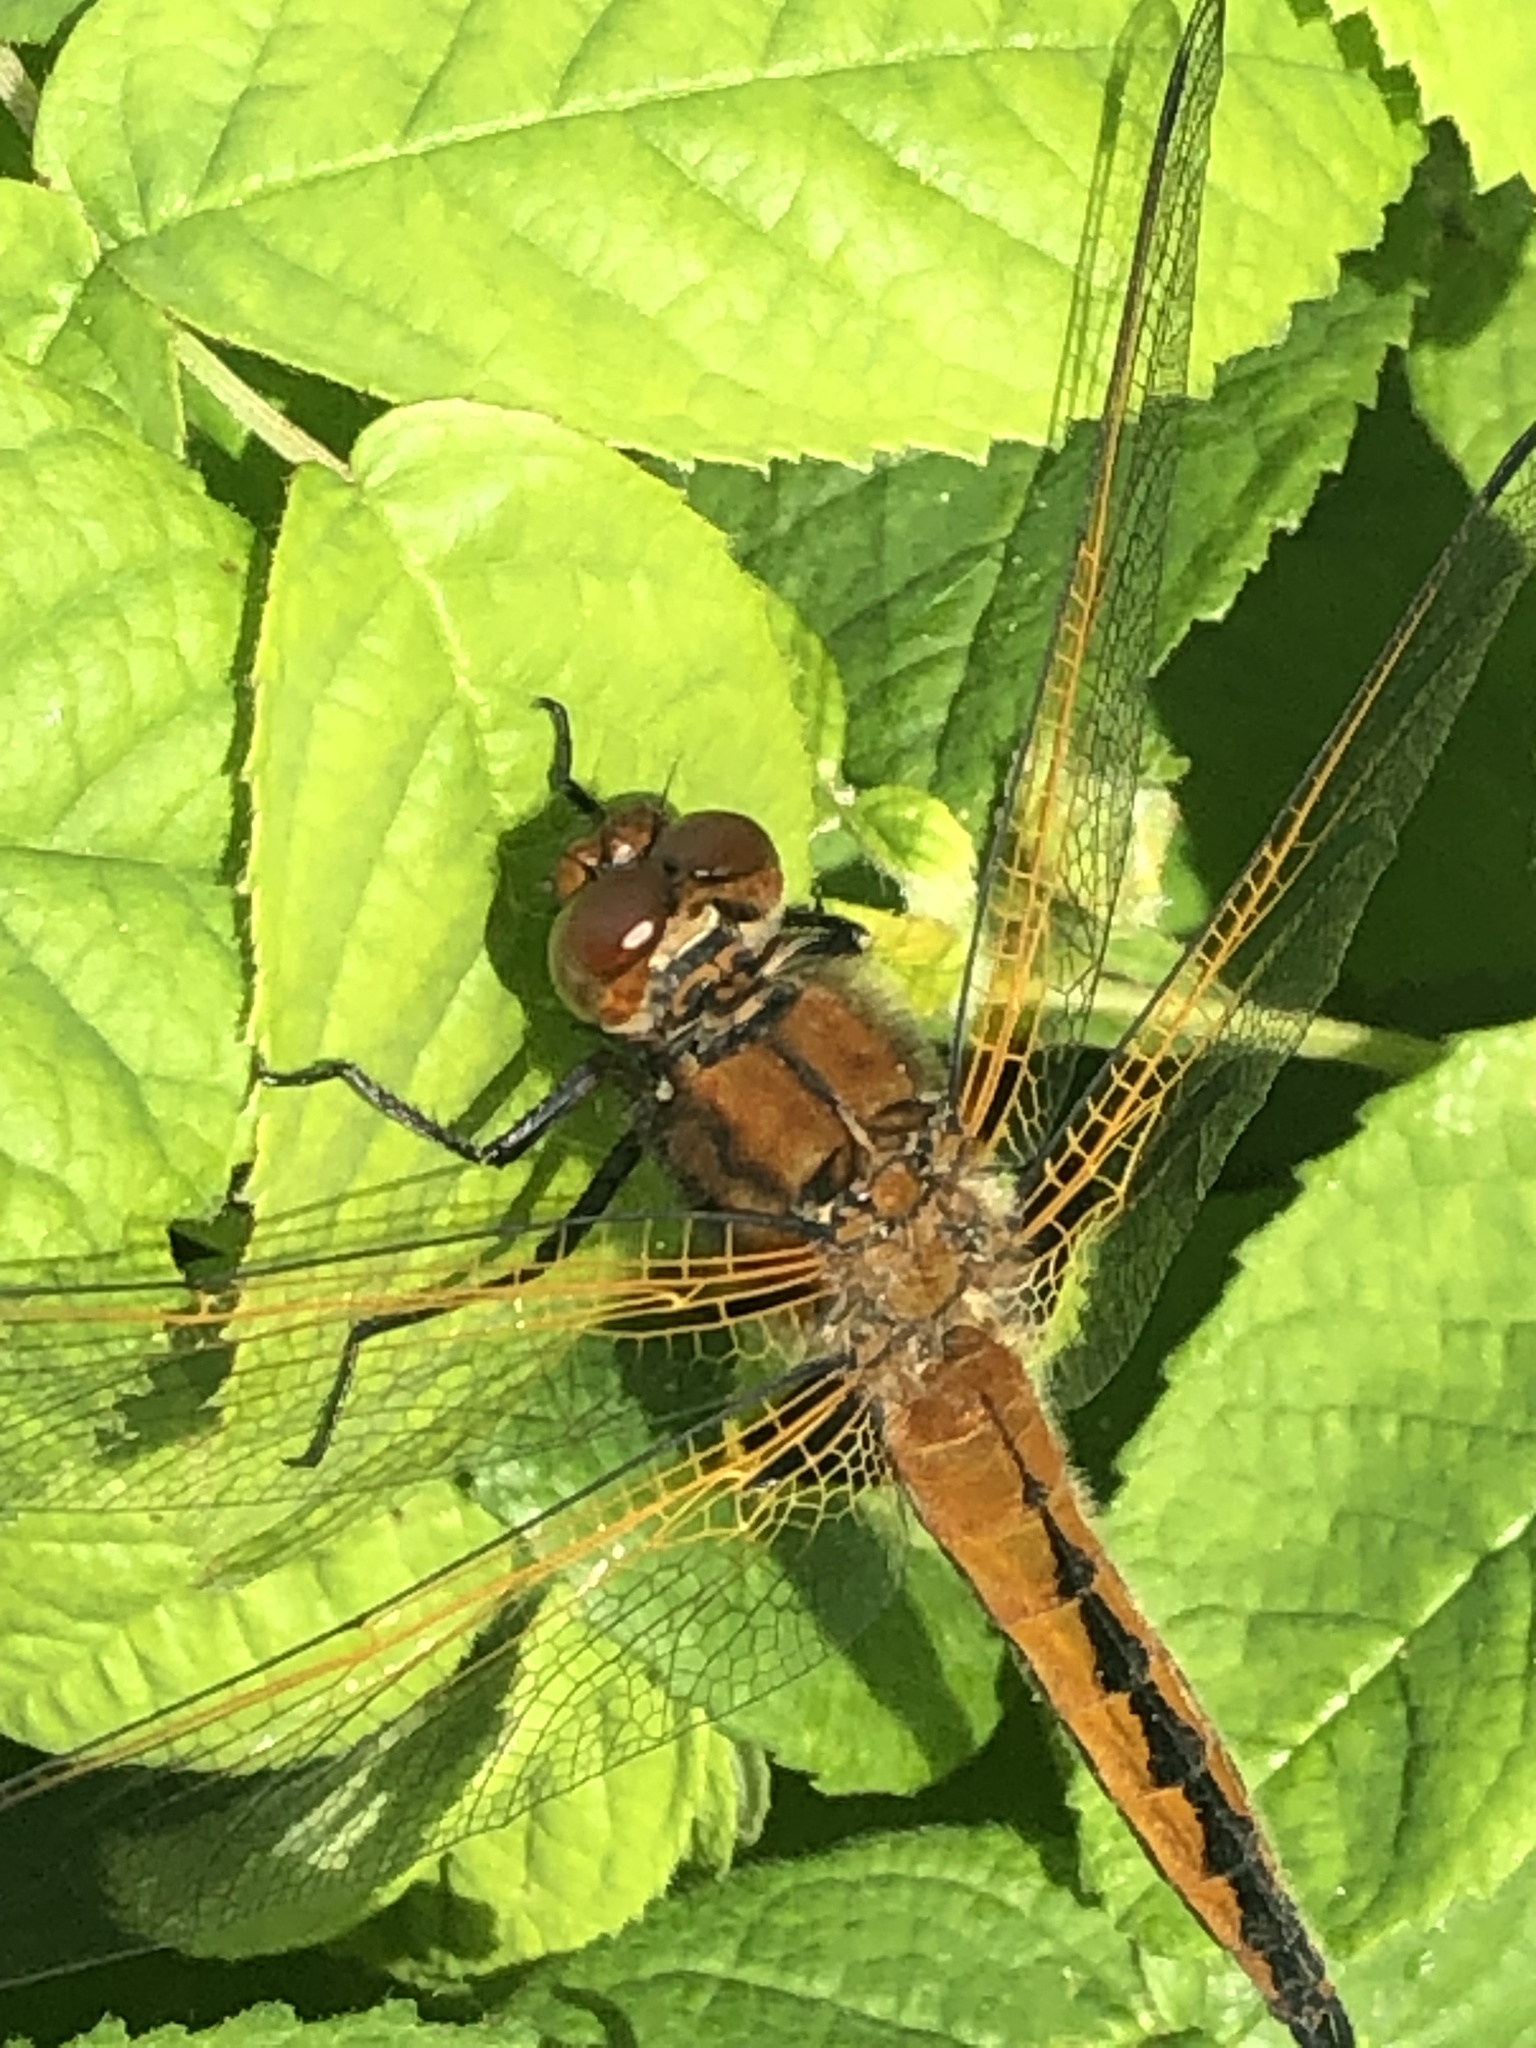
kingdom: Animalia
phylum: Arthropoda
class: Insecta
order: Odonata
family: Libellulidae
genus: Libellula
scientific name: Libellula fulva
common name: Blue chaser
